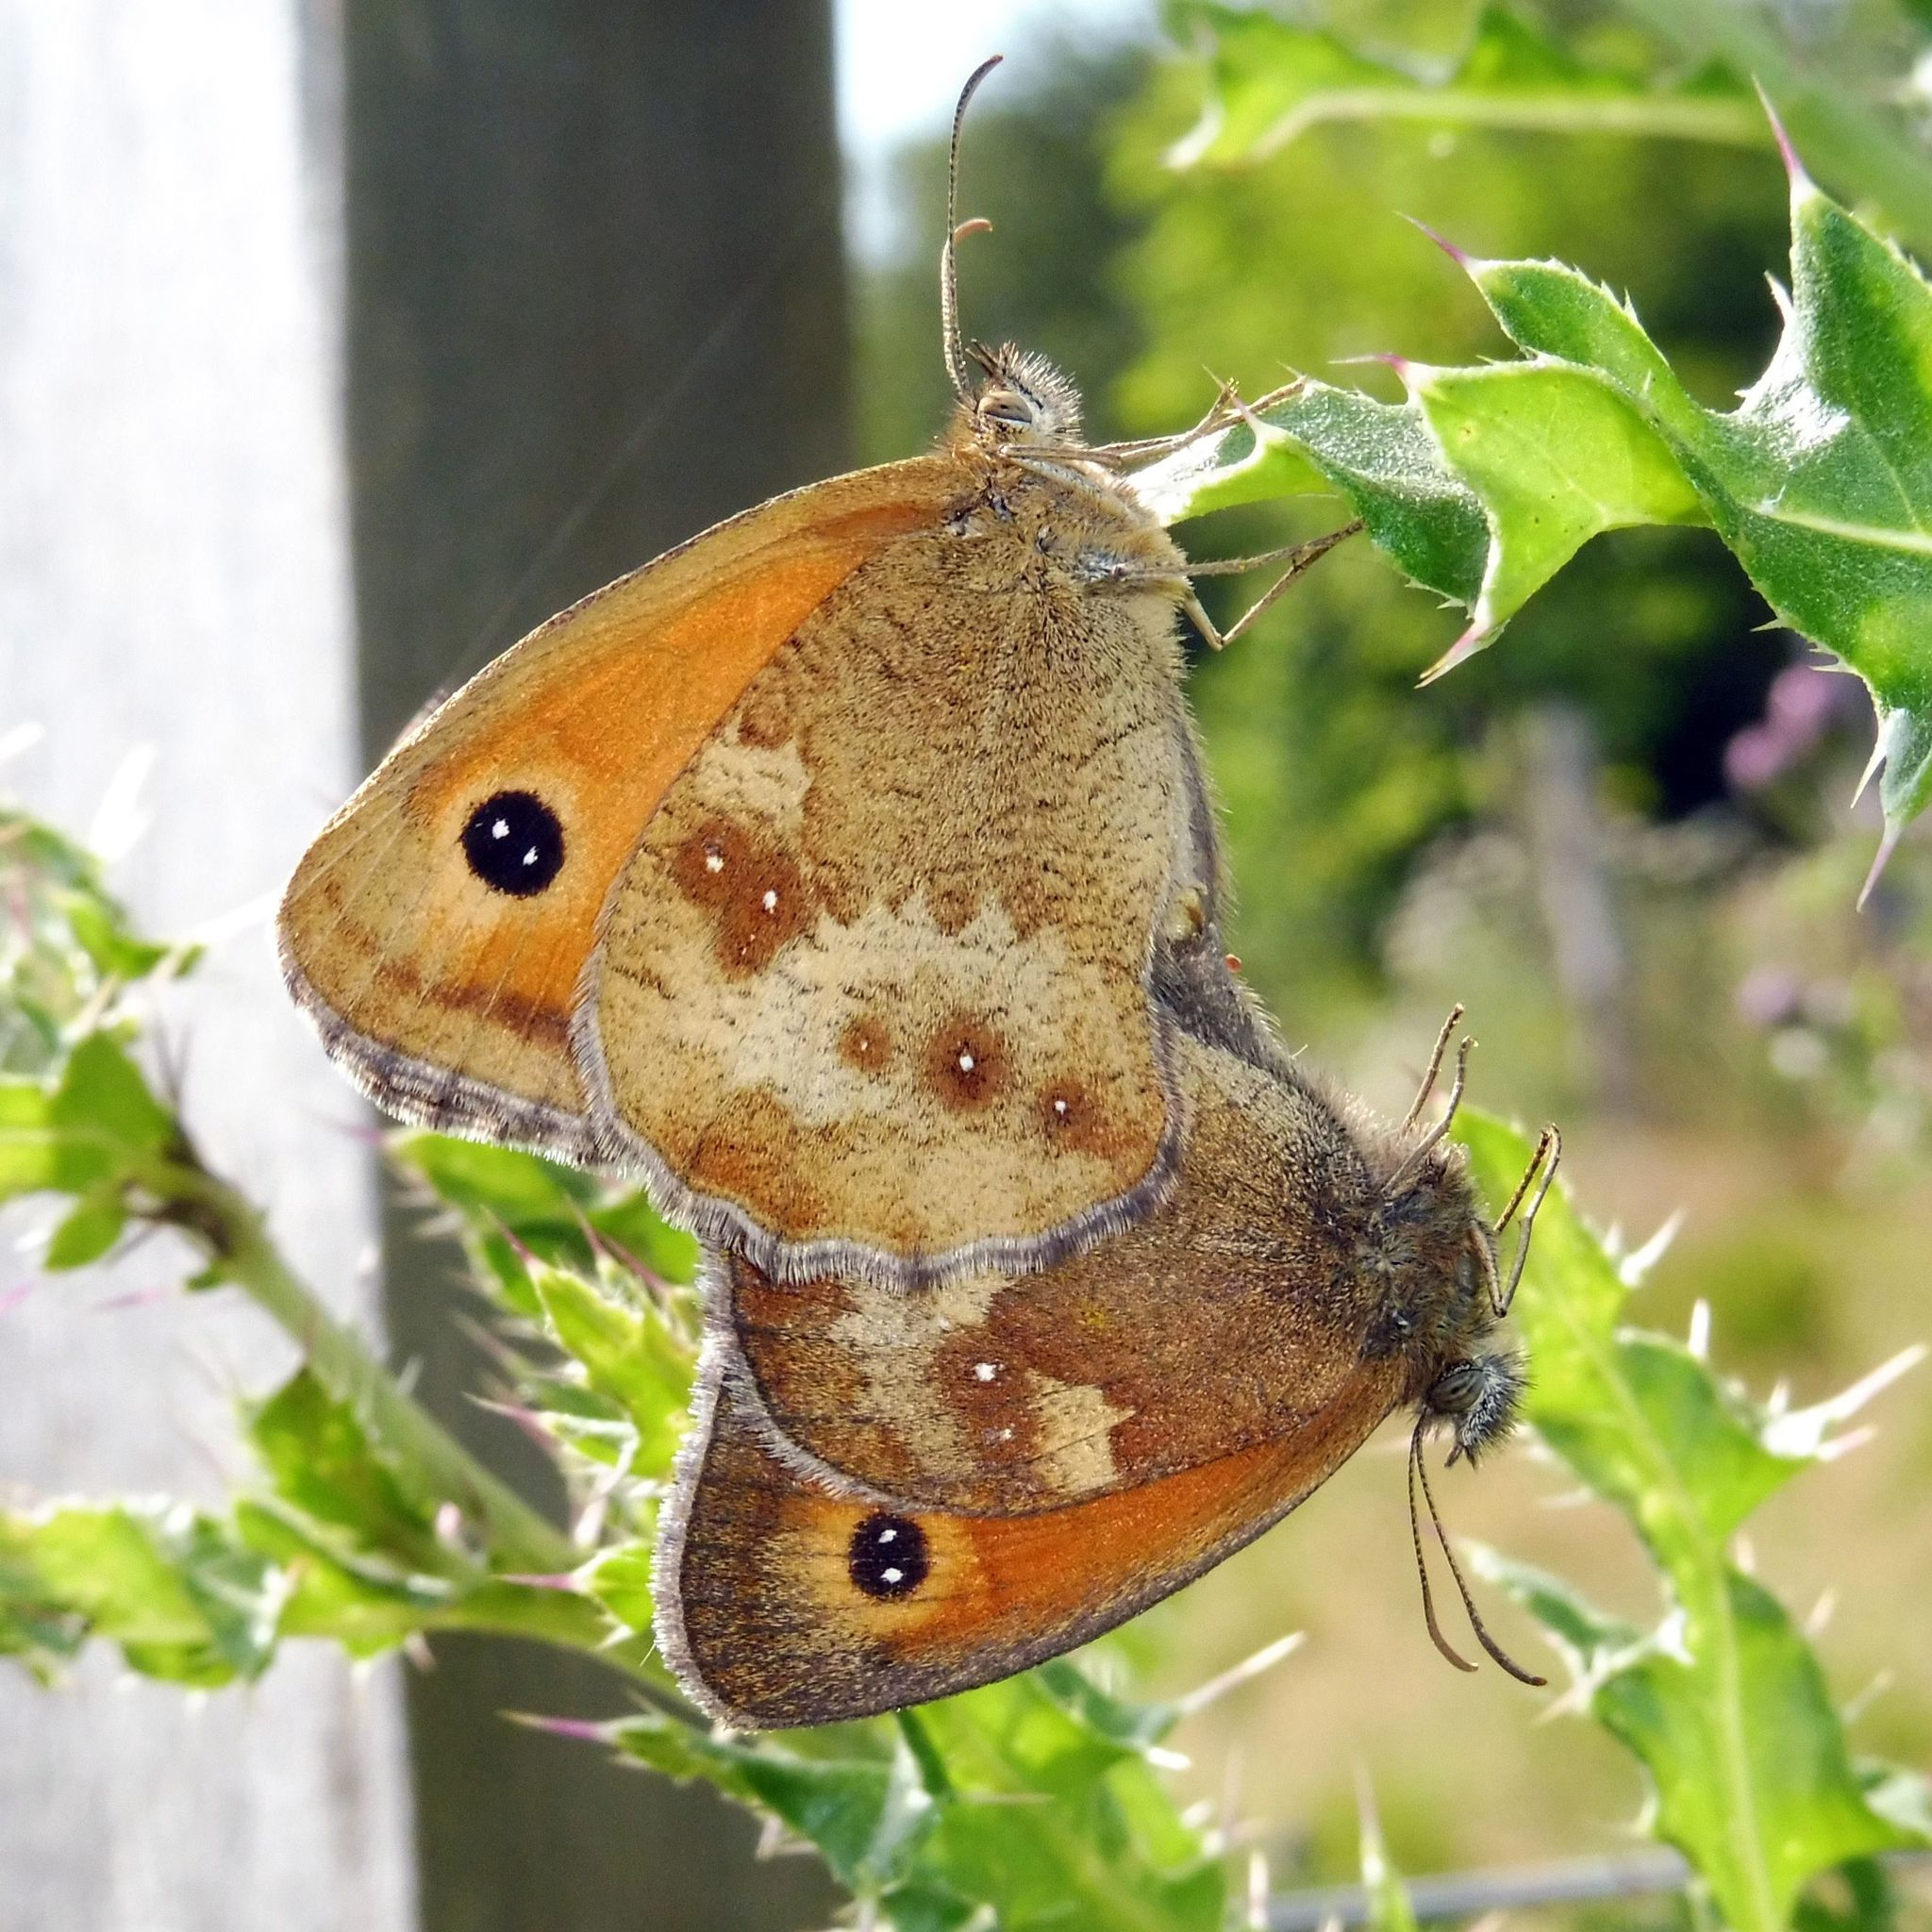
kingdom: Animalia
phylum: Arthropoda
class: Insecta
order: Lepidoptera
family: Nymphalidae
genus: Pyronia
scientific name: Pyronia tithonus
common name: Gatekeeper
